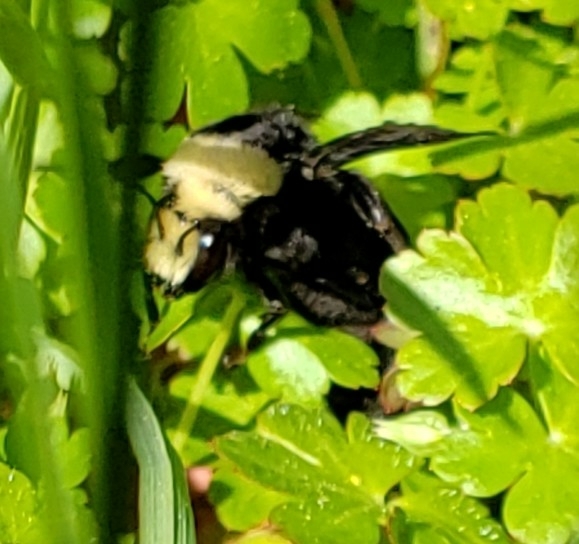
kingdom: Animalia
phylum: Arthropoda
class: Insecta
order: Hymenoptera
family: Apidae
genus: Bombus
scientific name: Bombus vosnesenskii
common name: Vosnesensky bumble bee
